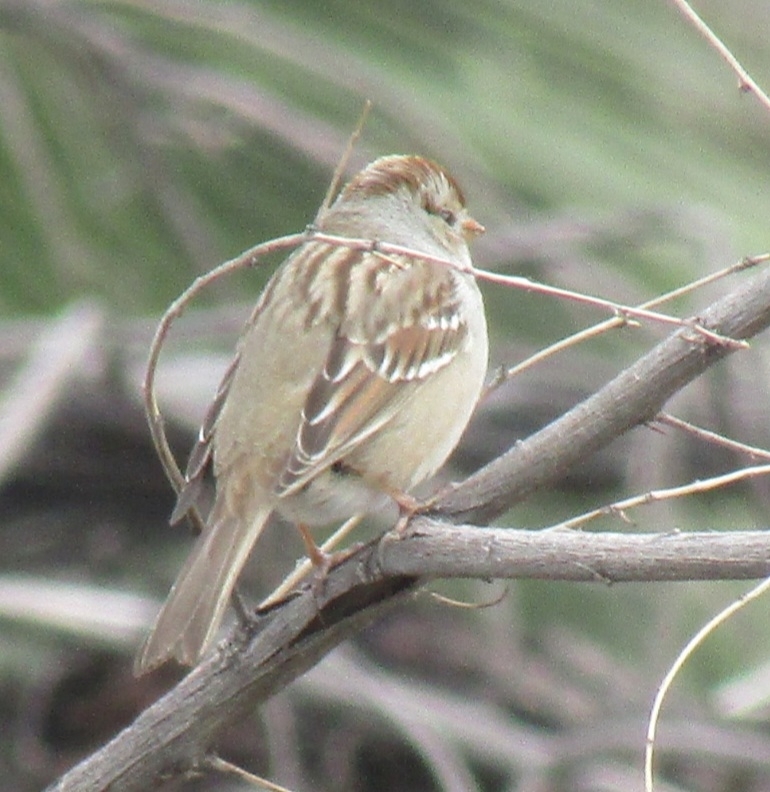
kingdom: Animalia
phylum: Chordata
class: Aves
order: Passeriformes
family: Passerellidae
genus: Zonotrichia
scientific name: Zonotrichia leucophrys
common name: White-crowned sparrow
